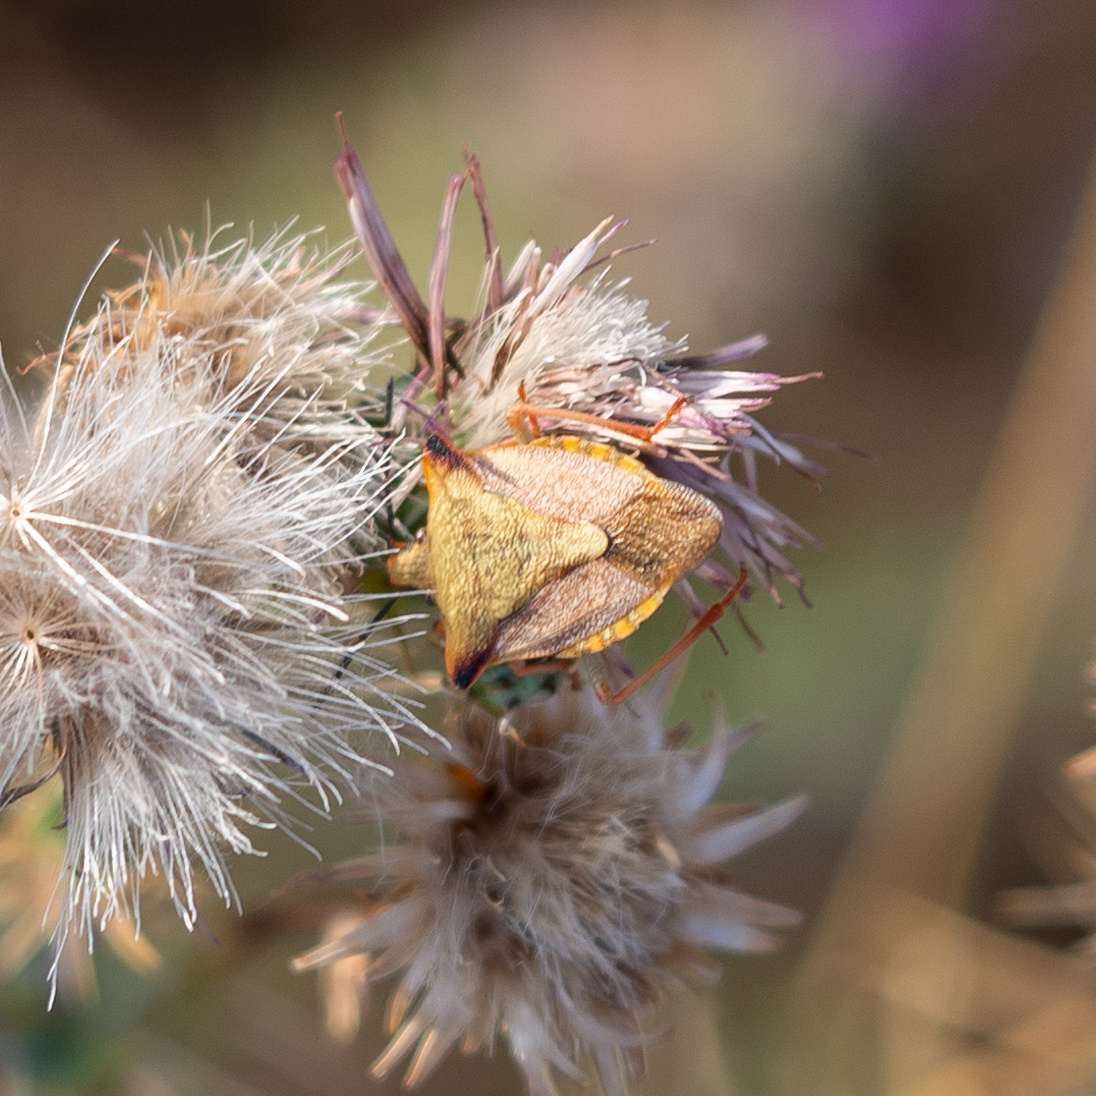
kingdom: Animalia
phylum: Arthropoda
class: Insecta
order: Hemiptera
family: Pentatomidae
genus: Carpocoris
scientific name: Carpocoris mediterraneus
